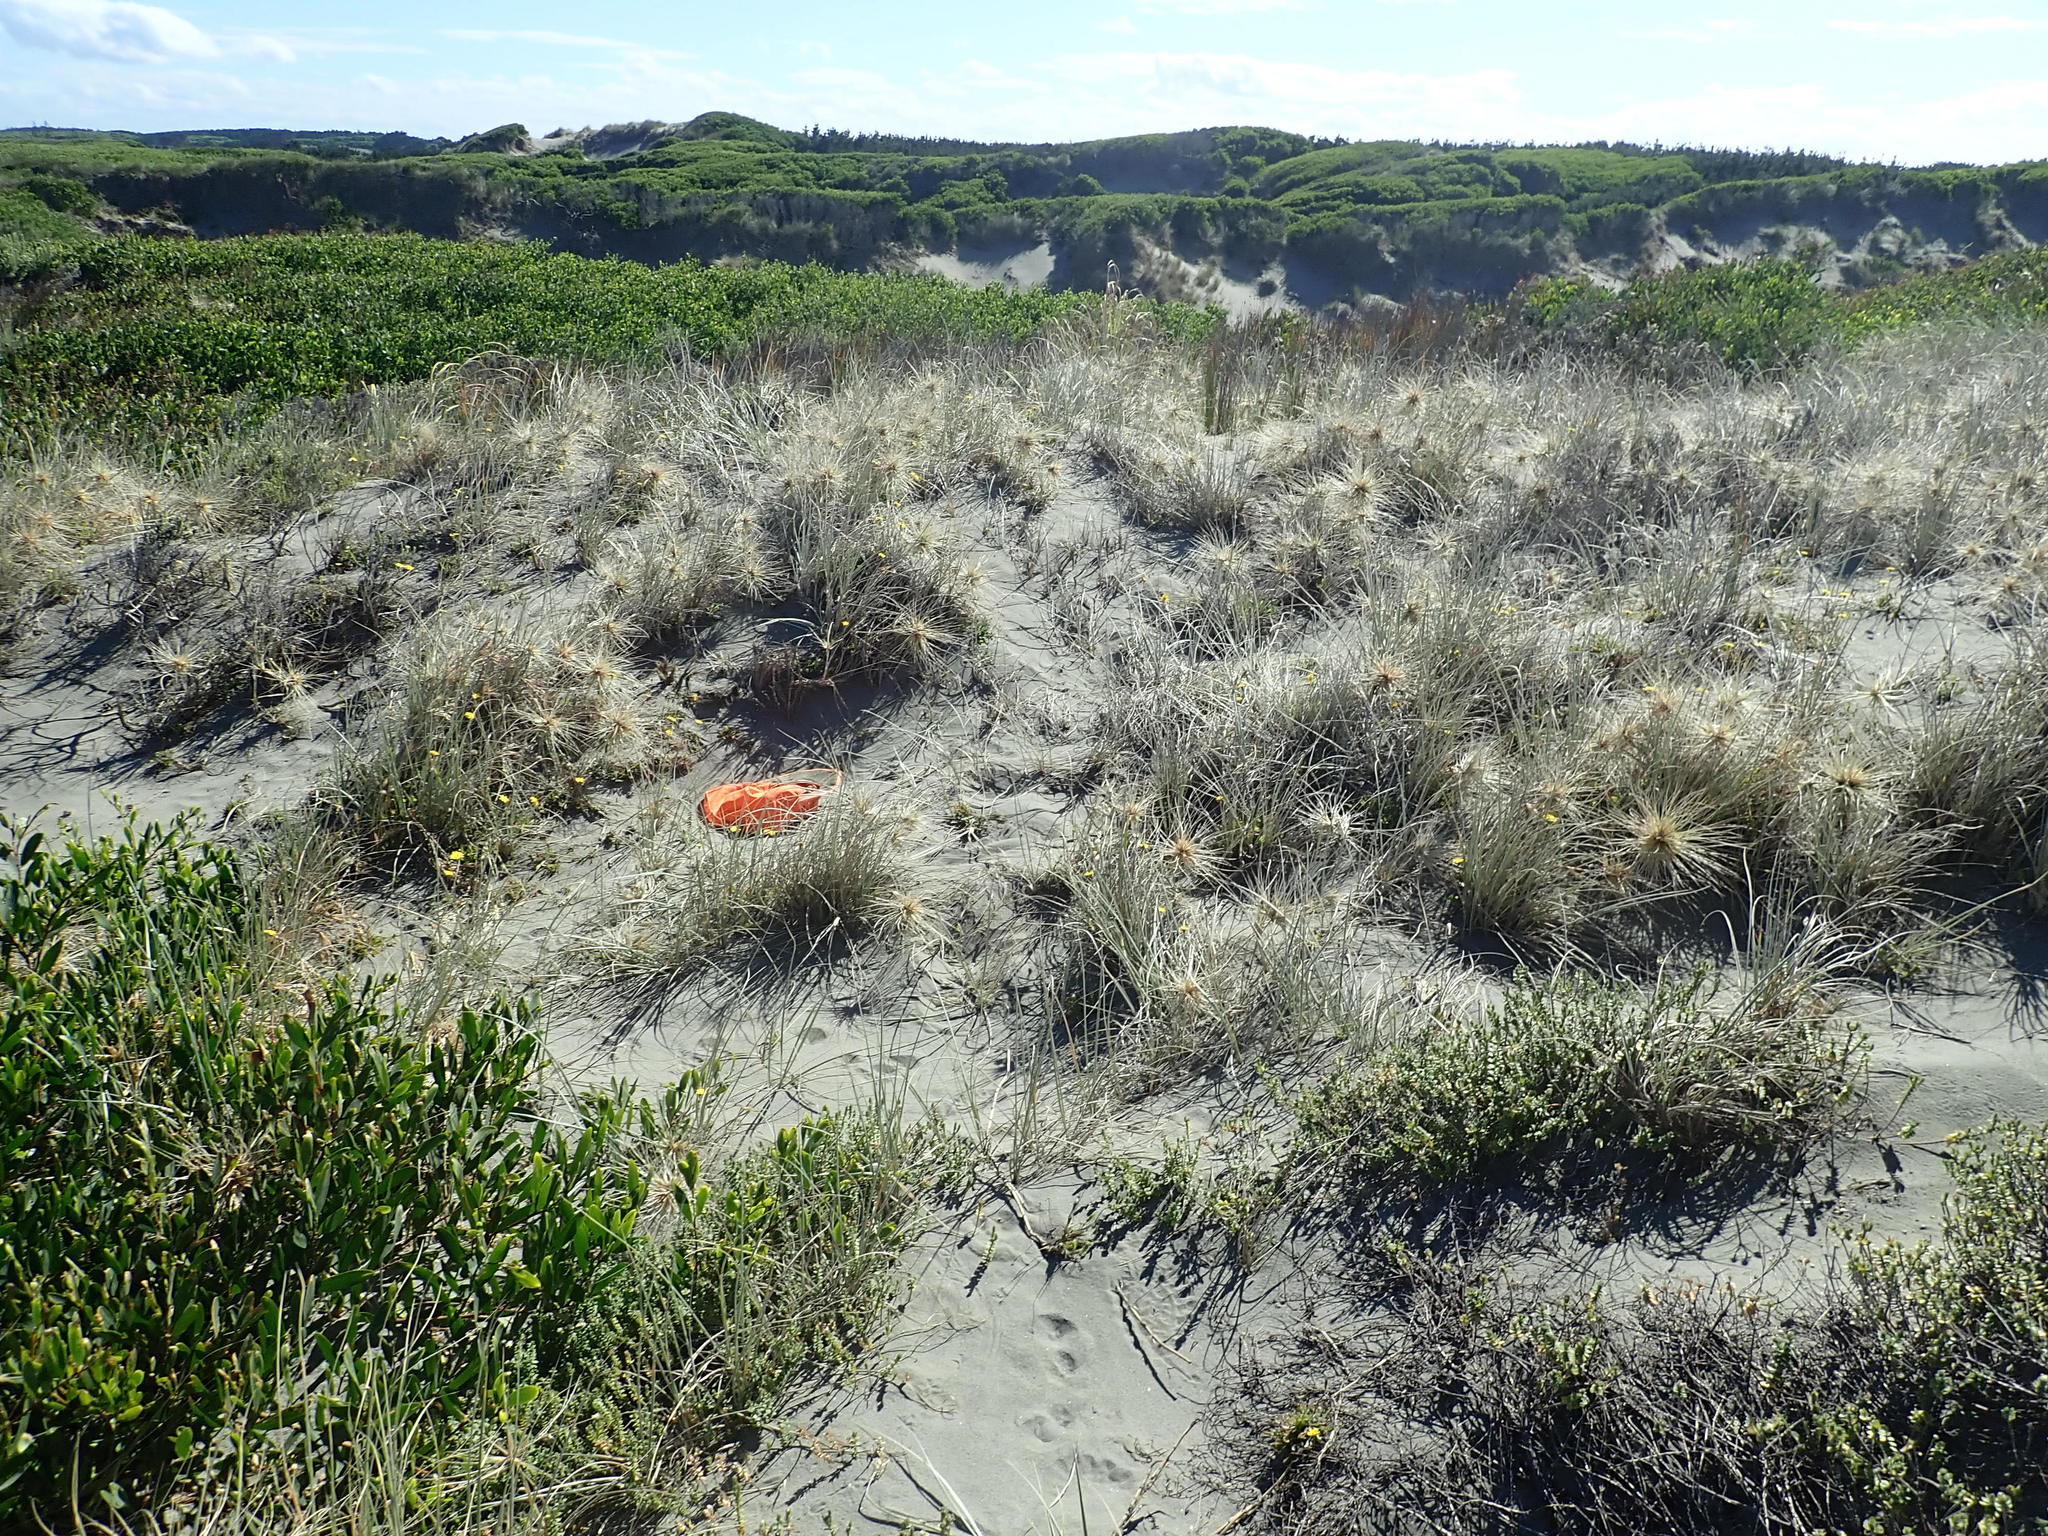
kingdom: Plantae
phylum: Tracheophyta
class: Magnoliopsida
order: Malvales
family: Thymelaeaceae
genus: Pimelea
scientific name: Pimelea villosa
